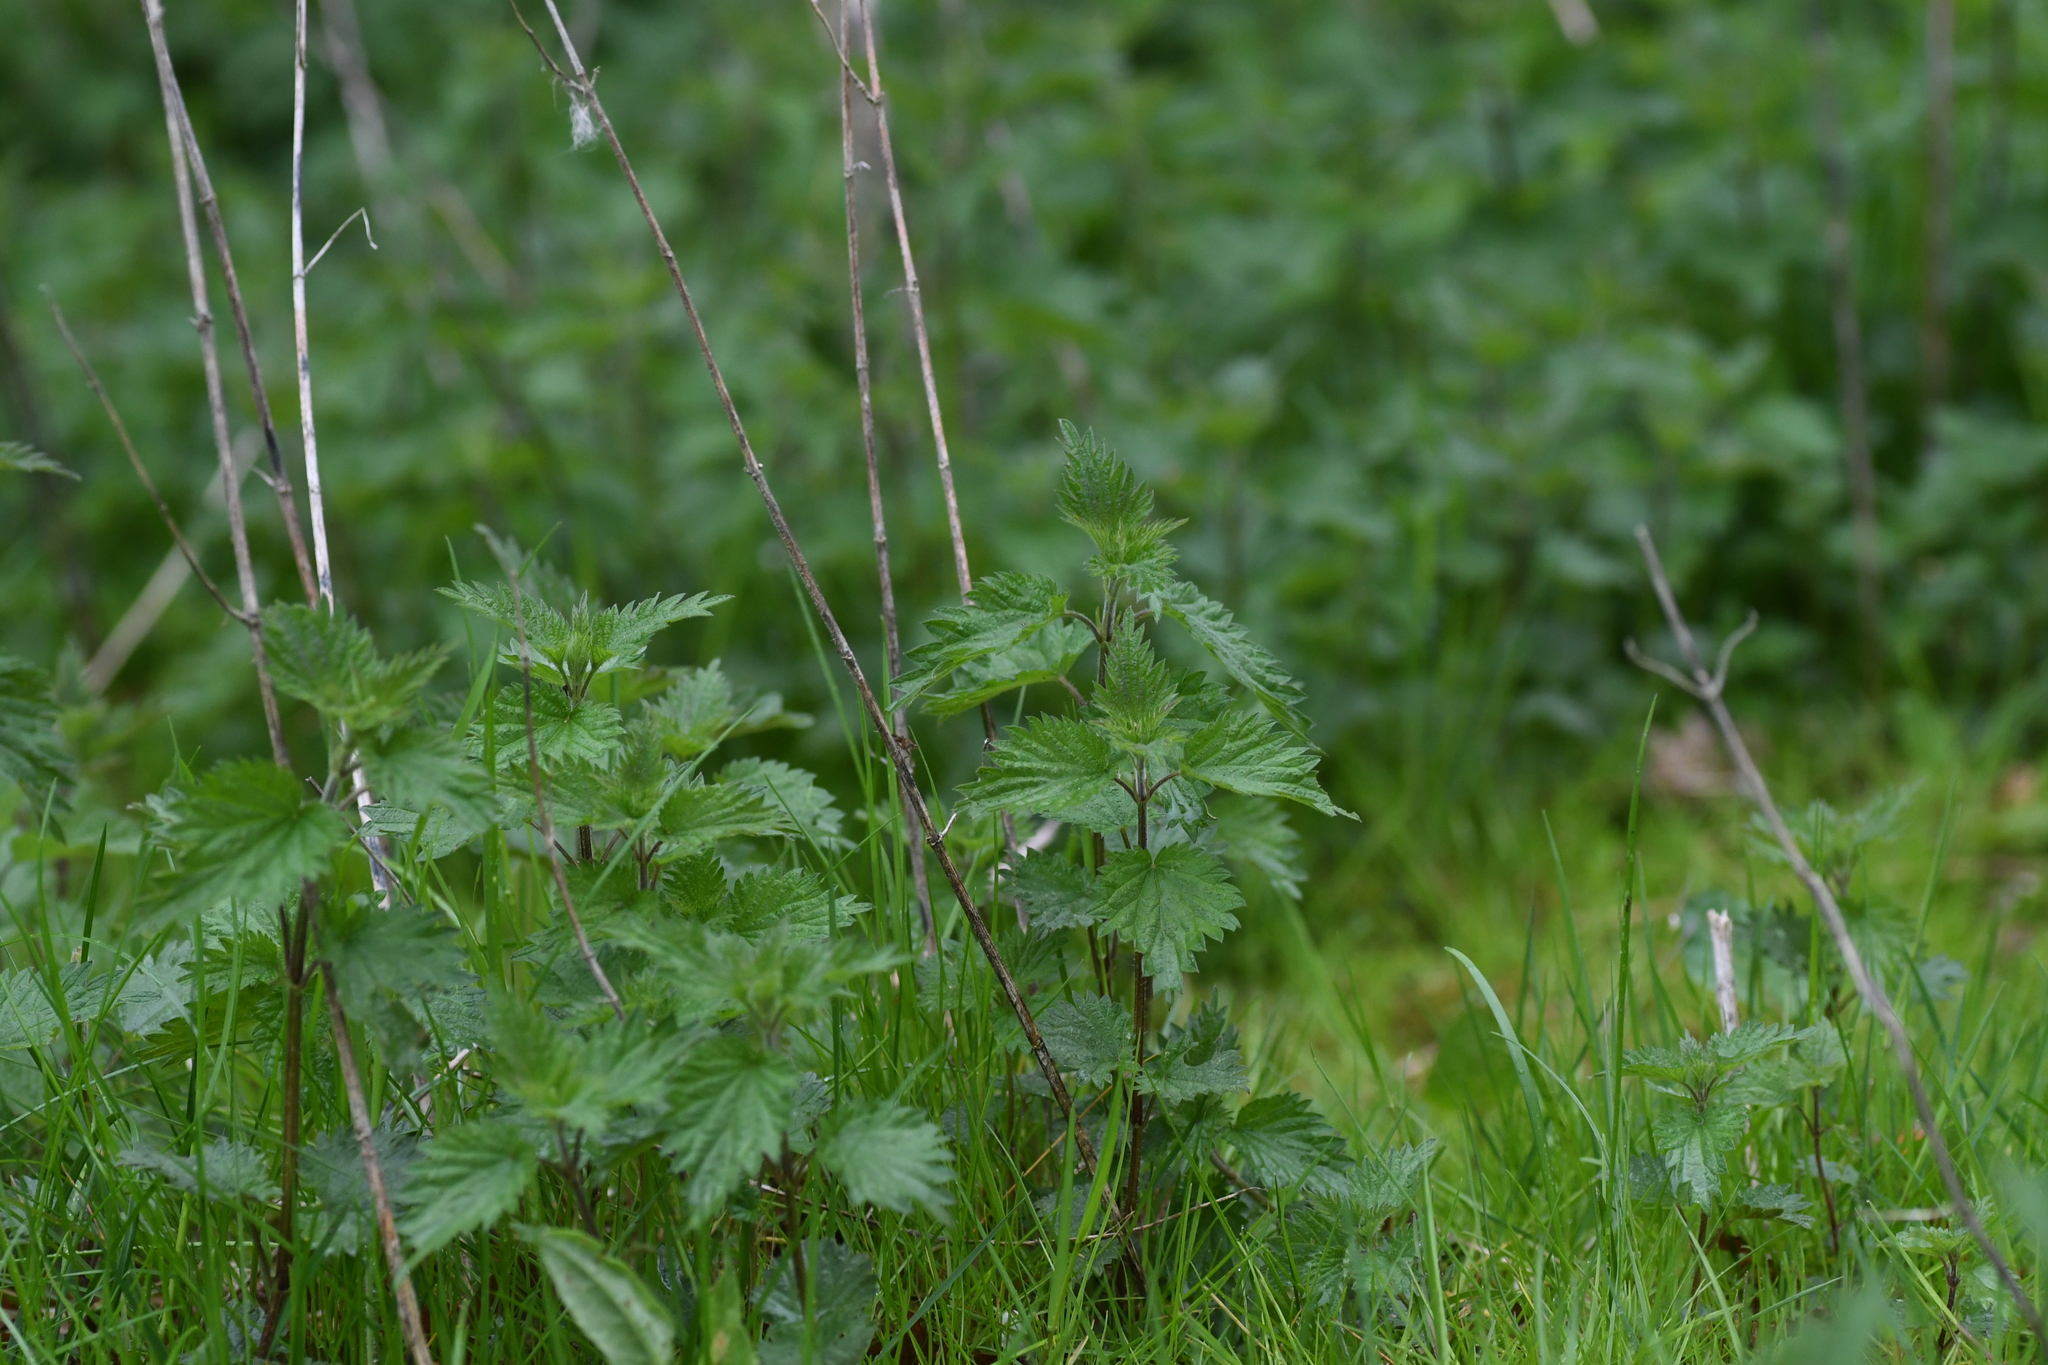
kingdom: Plantae
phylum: Tracheophyta
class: Magnoliopsida
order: Rosales
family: Urticaceae
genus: Urtica
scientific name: Urtica dioica
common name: Common nettle
